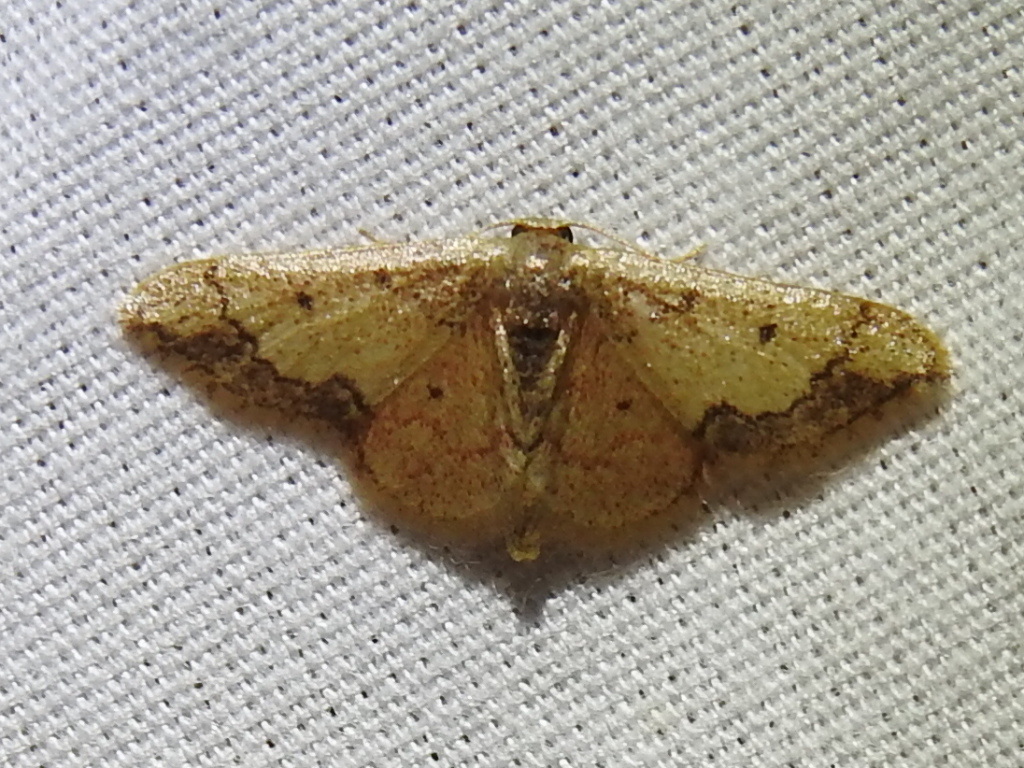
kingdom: Animalia
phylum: Arthropoda
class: Insecta
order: Lepidoptera
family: Geometridae
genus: Idaea
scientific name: Idaea kendallaria
